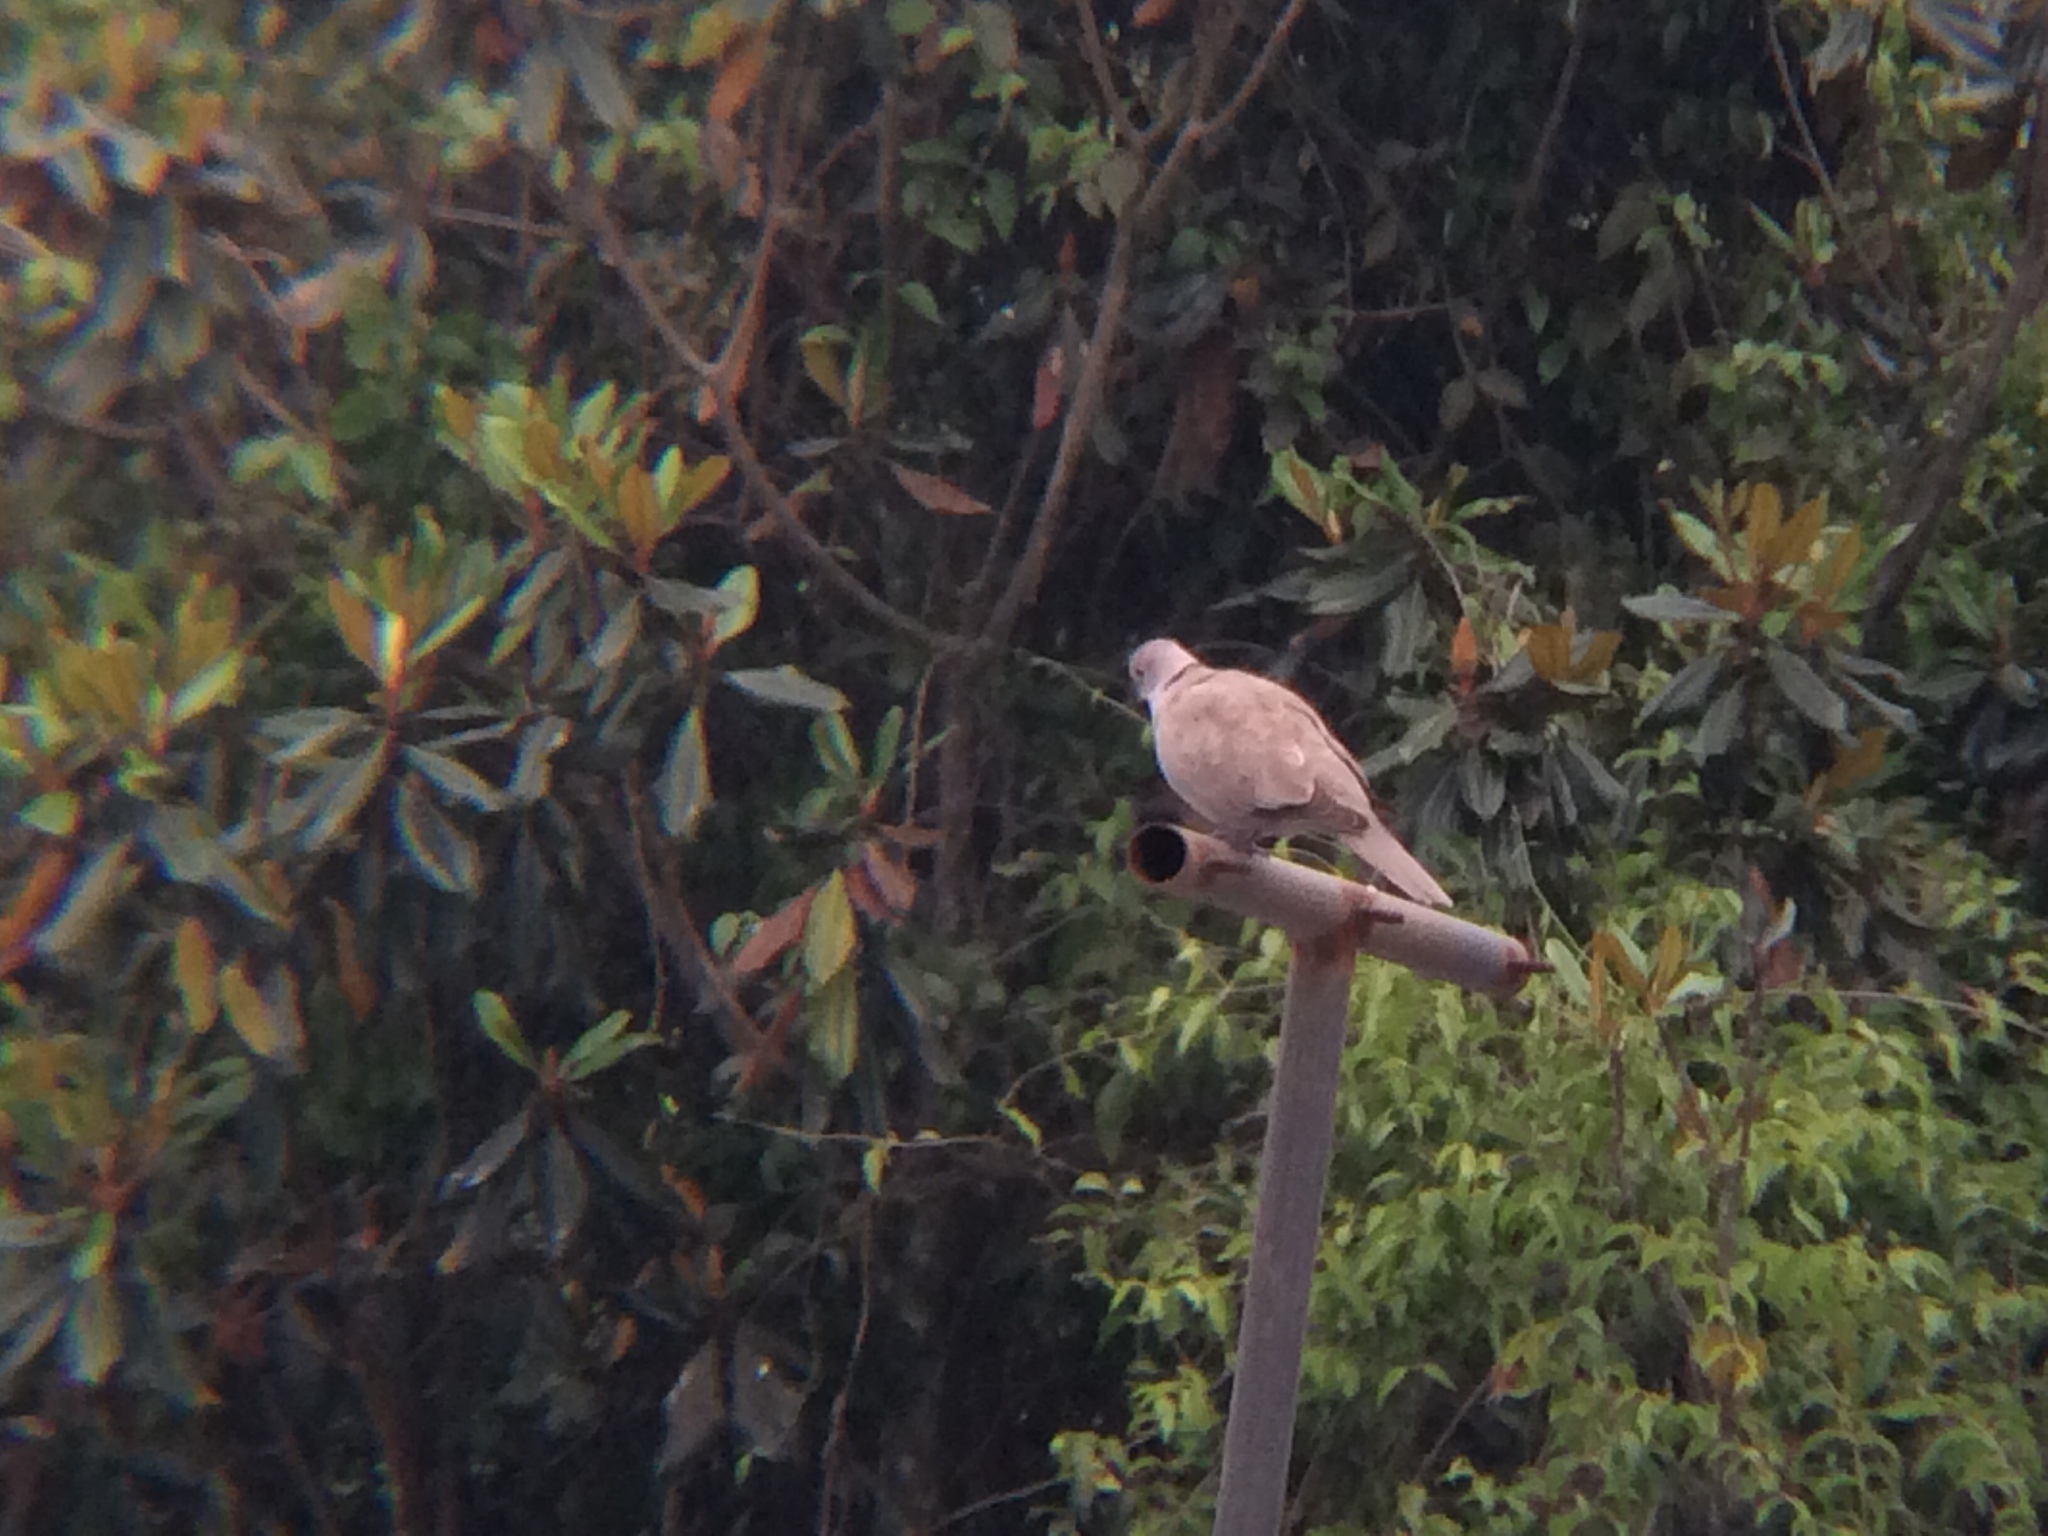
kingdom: Animalia
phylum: Chordata
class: Aves
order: Columbiformes
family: Columbidae
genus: Streptopelia
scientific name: Streptopelia decaocto
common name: Eurasian collared dove
